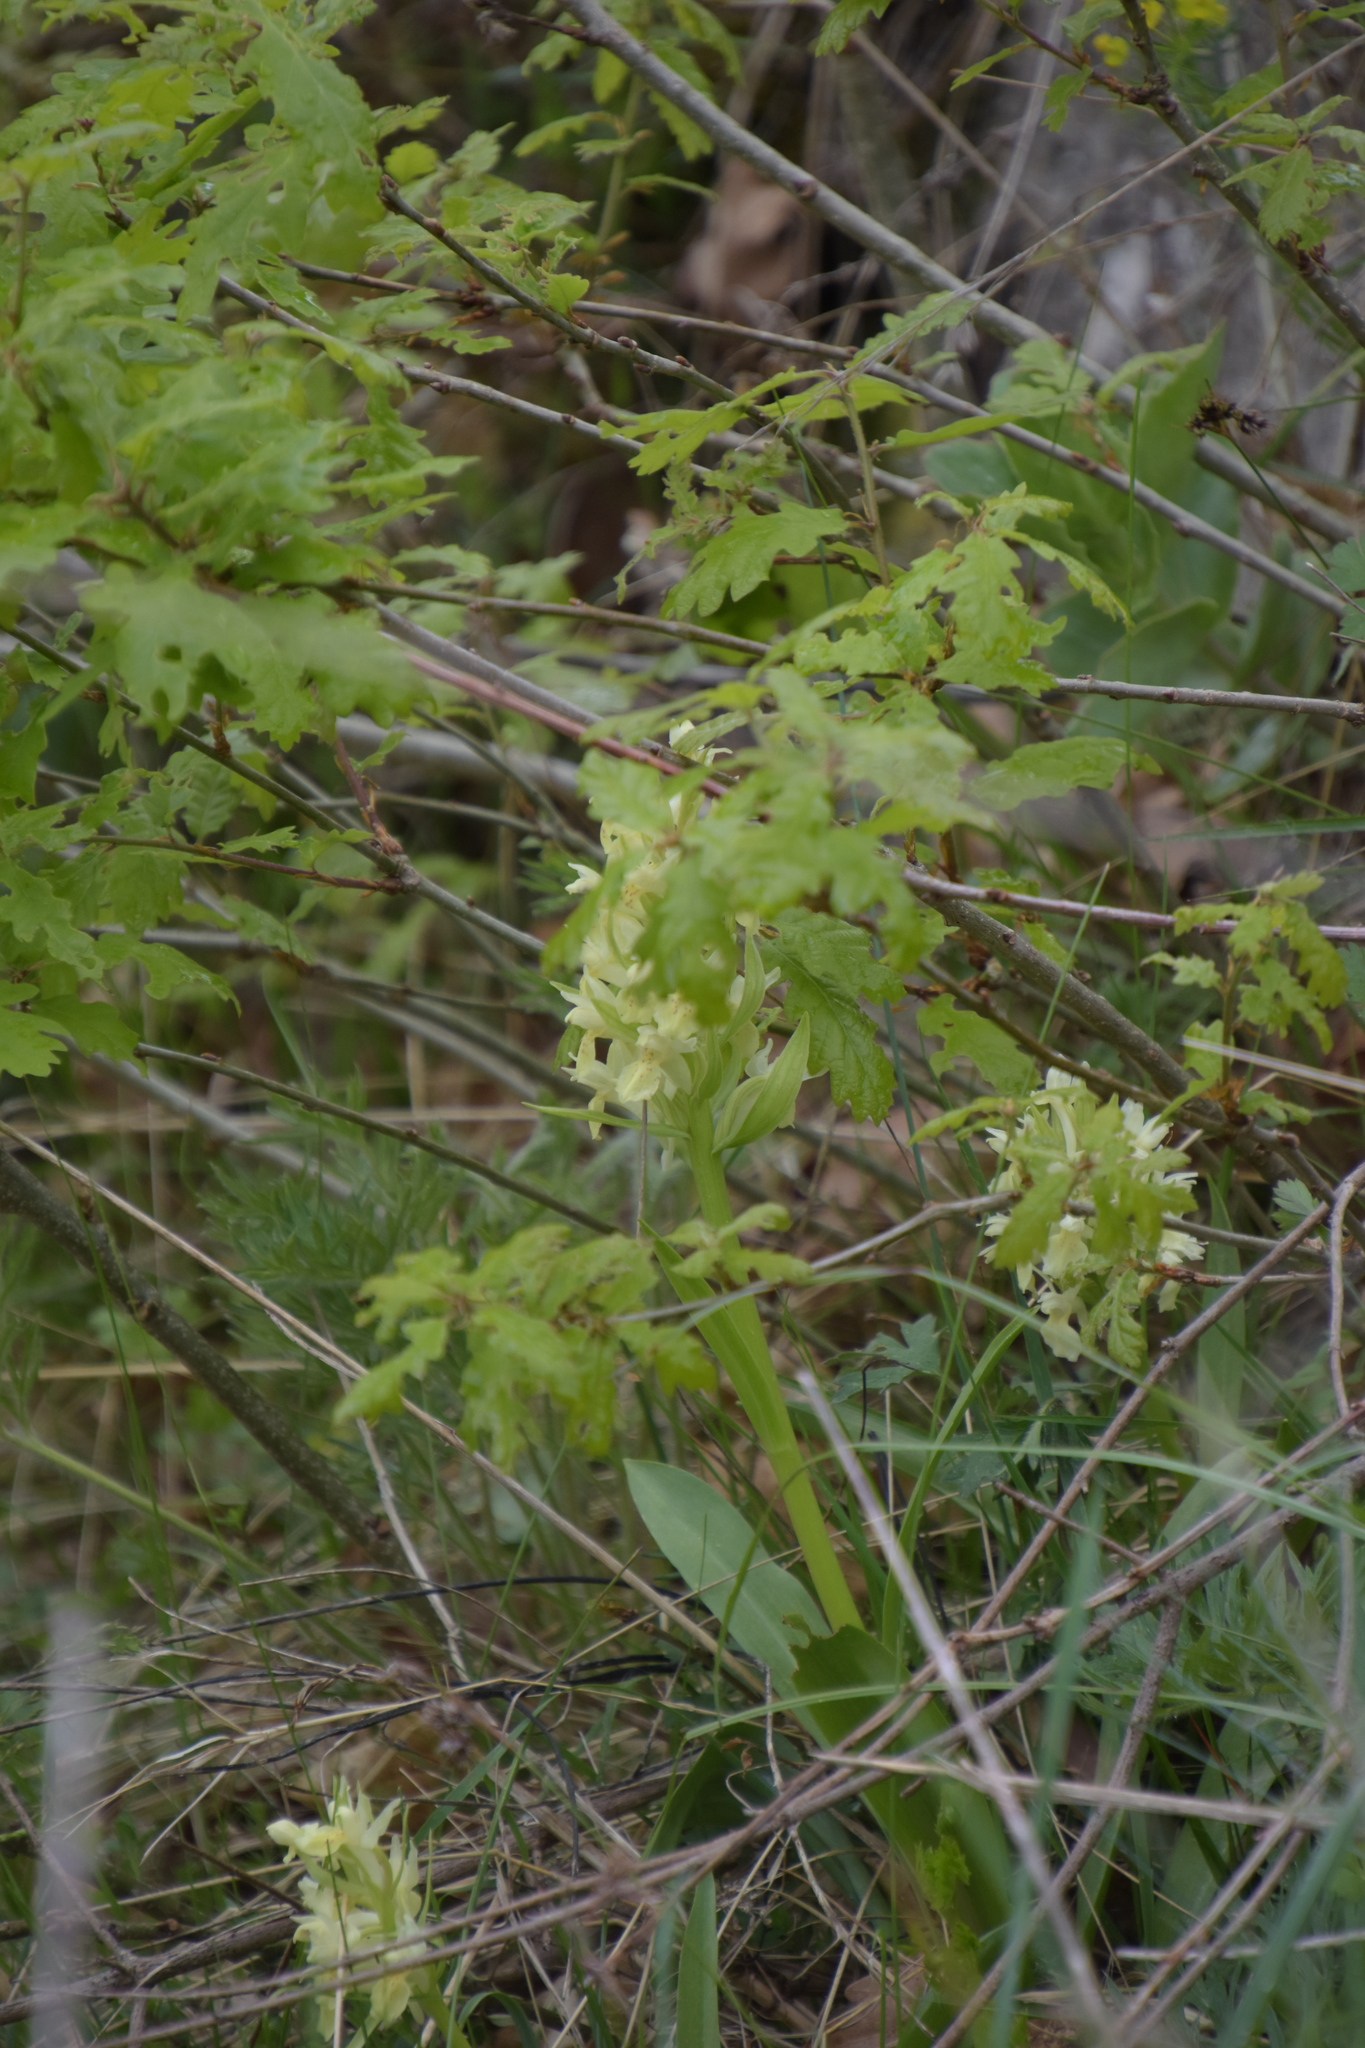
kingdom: Plantae
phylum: Tracheophyta
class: Liliopsida
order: Asparagales
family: Orchidaceae
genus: Dactylorhiza
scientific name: Dactylorhiza sambucina
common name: Elder-flowered orchid
